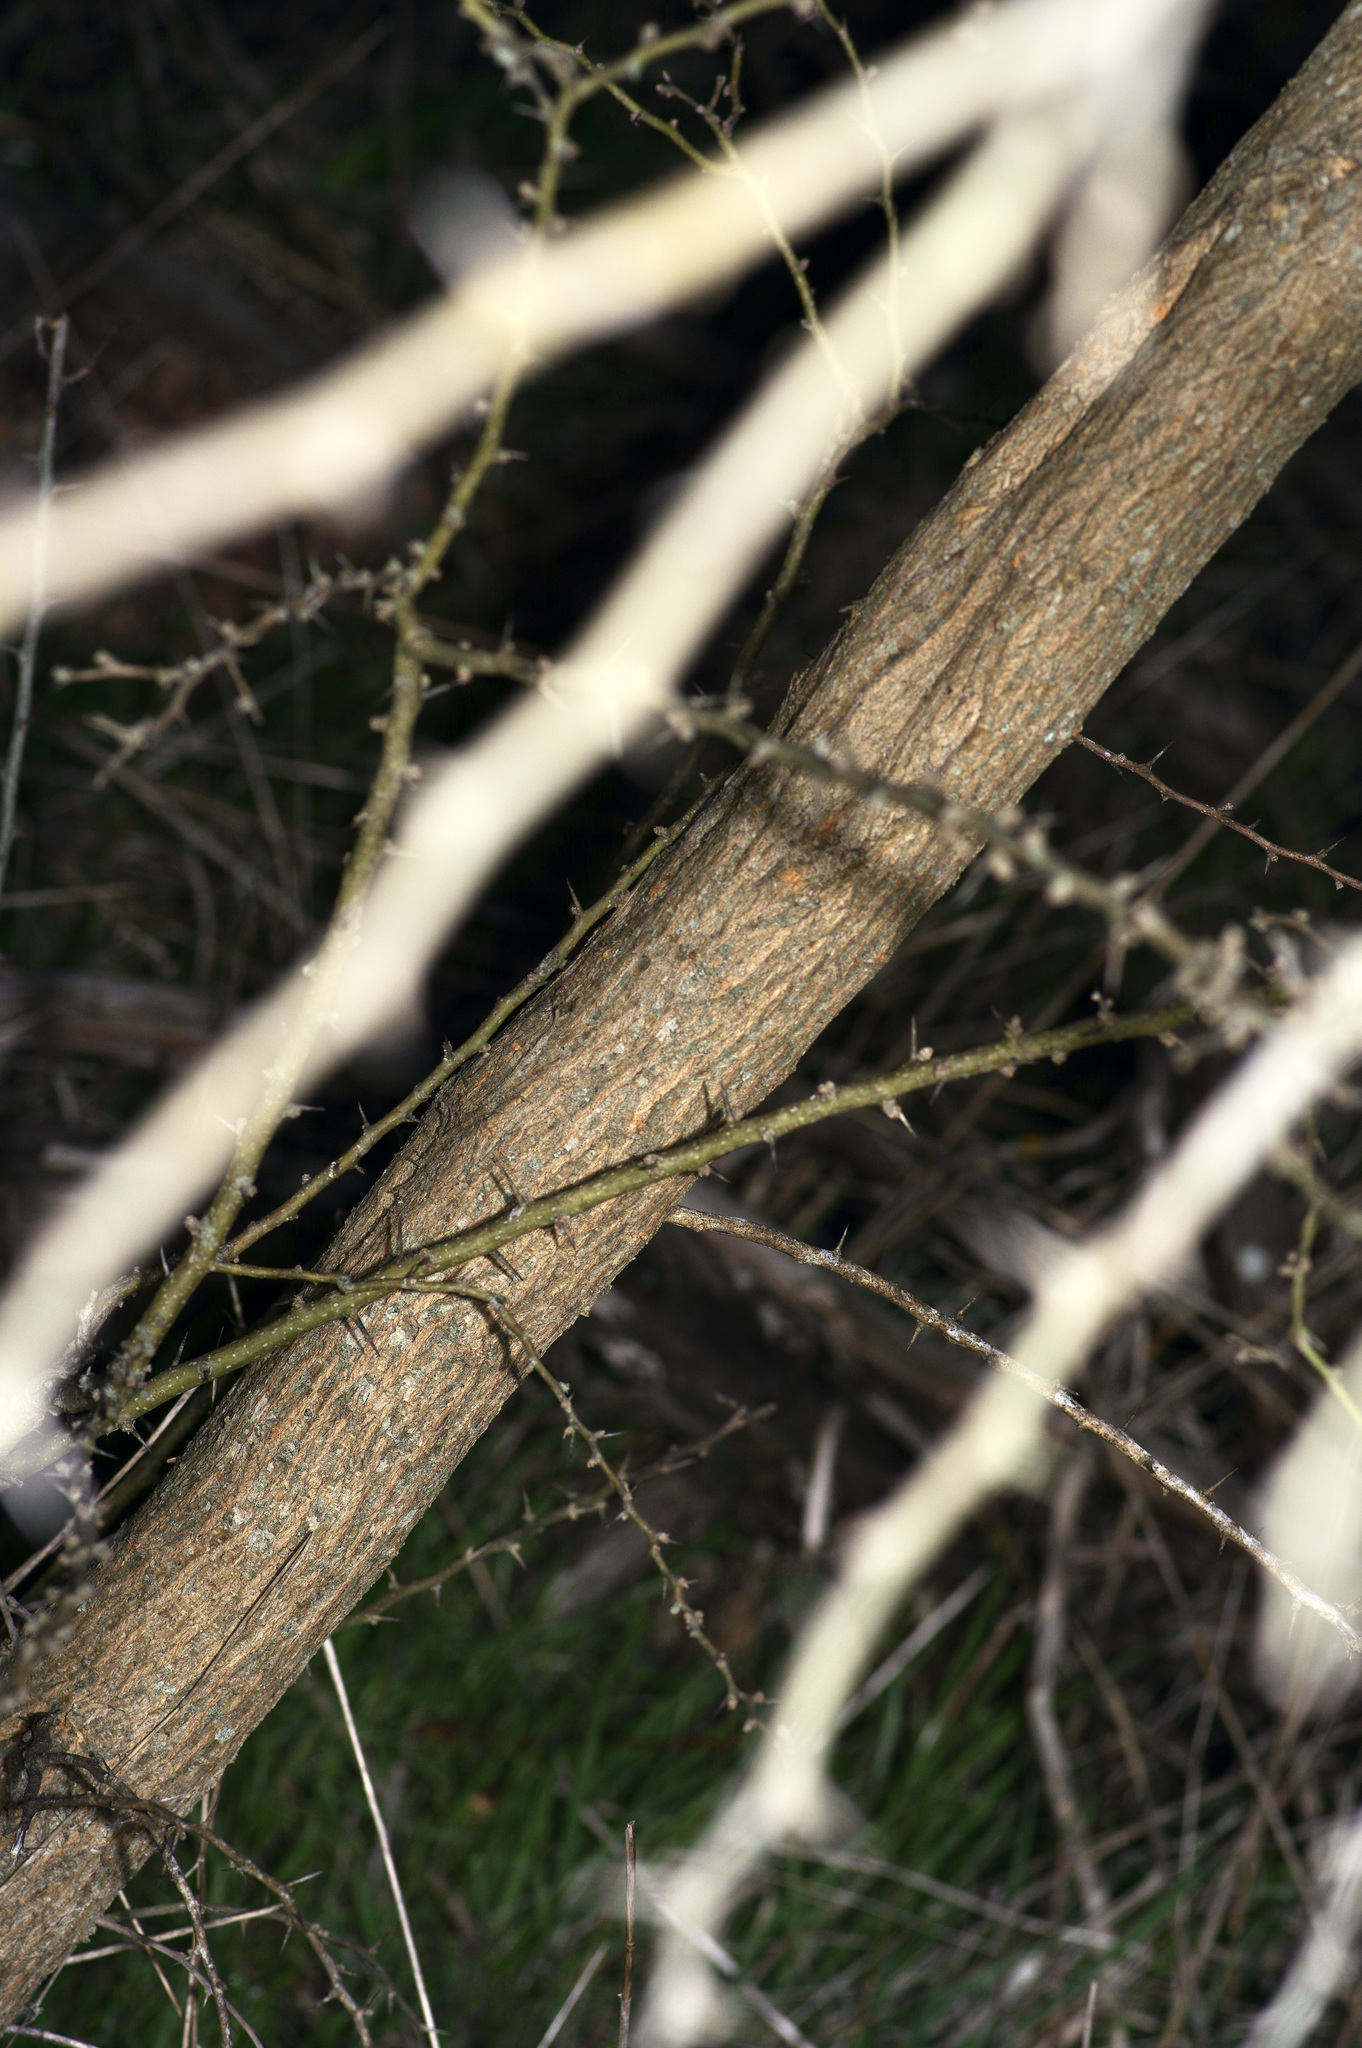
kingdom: Plantae
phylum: Tracheophyta
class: Magnoliopsida
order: Rosales
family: Moraceae
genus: Maclura
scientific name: Maclura pomifera
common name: Osage-orange
